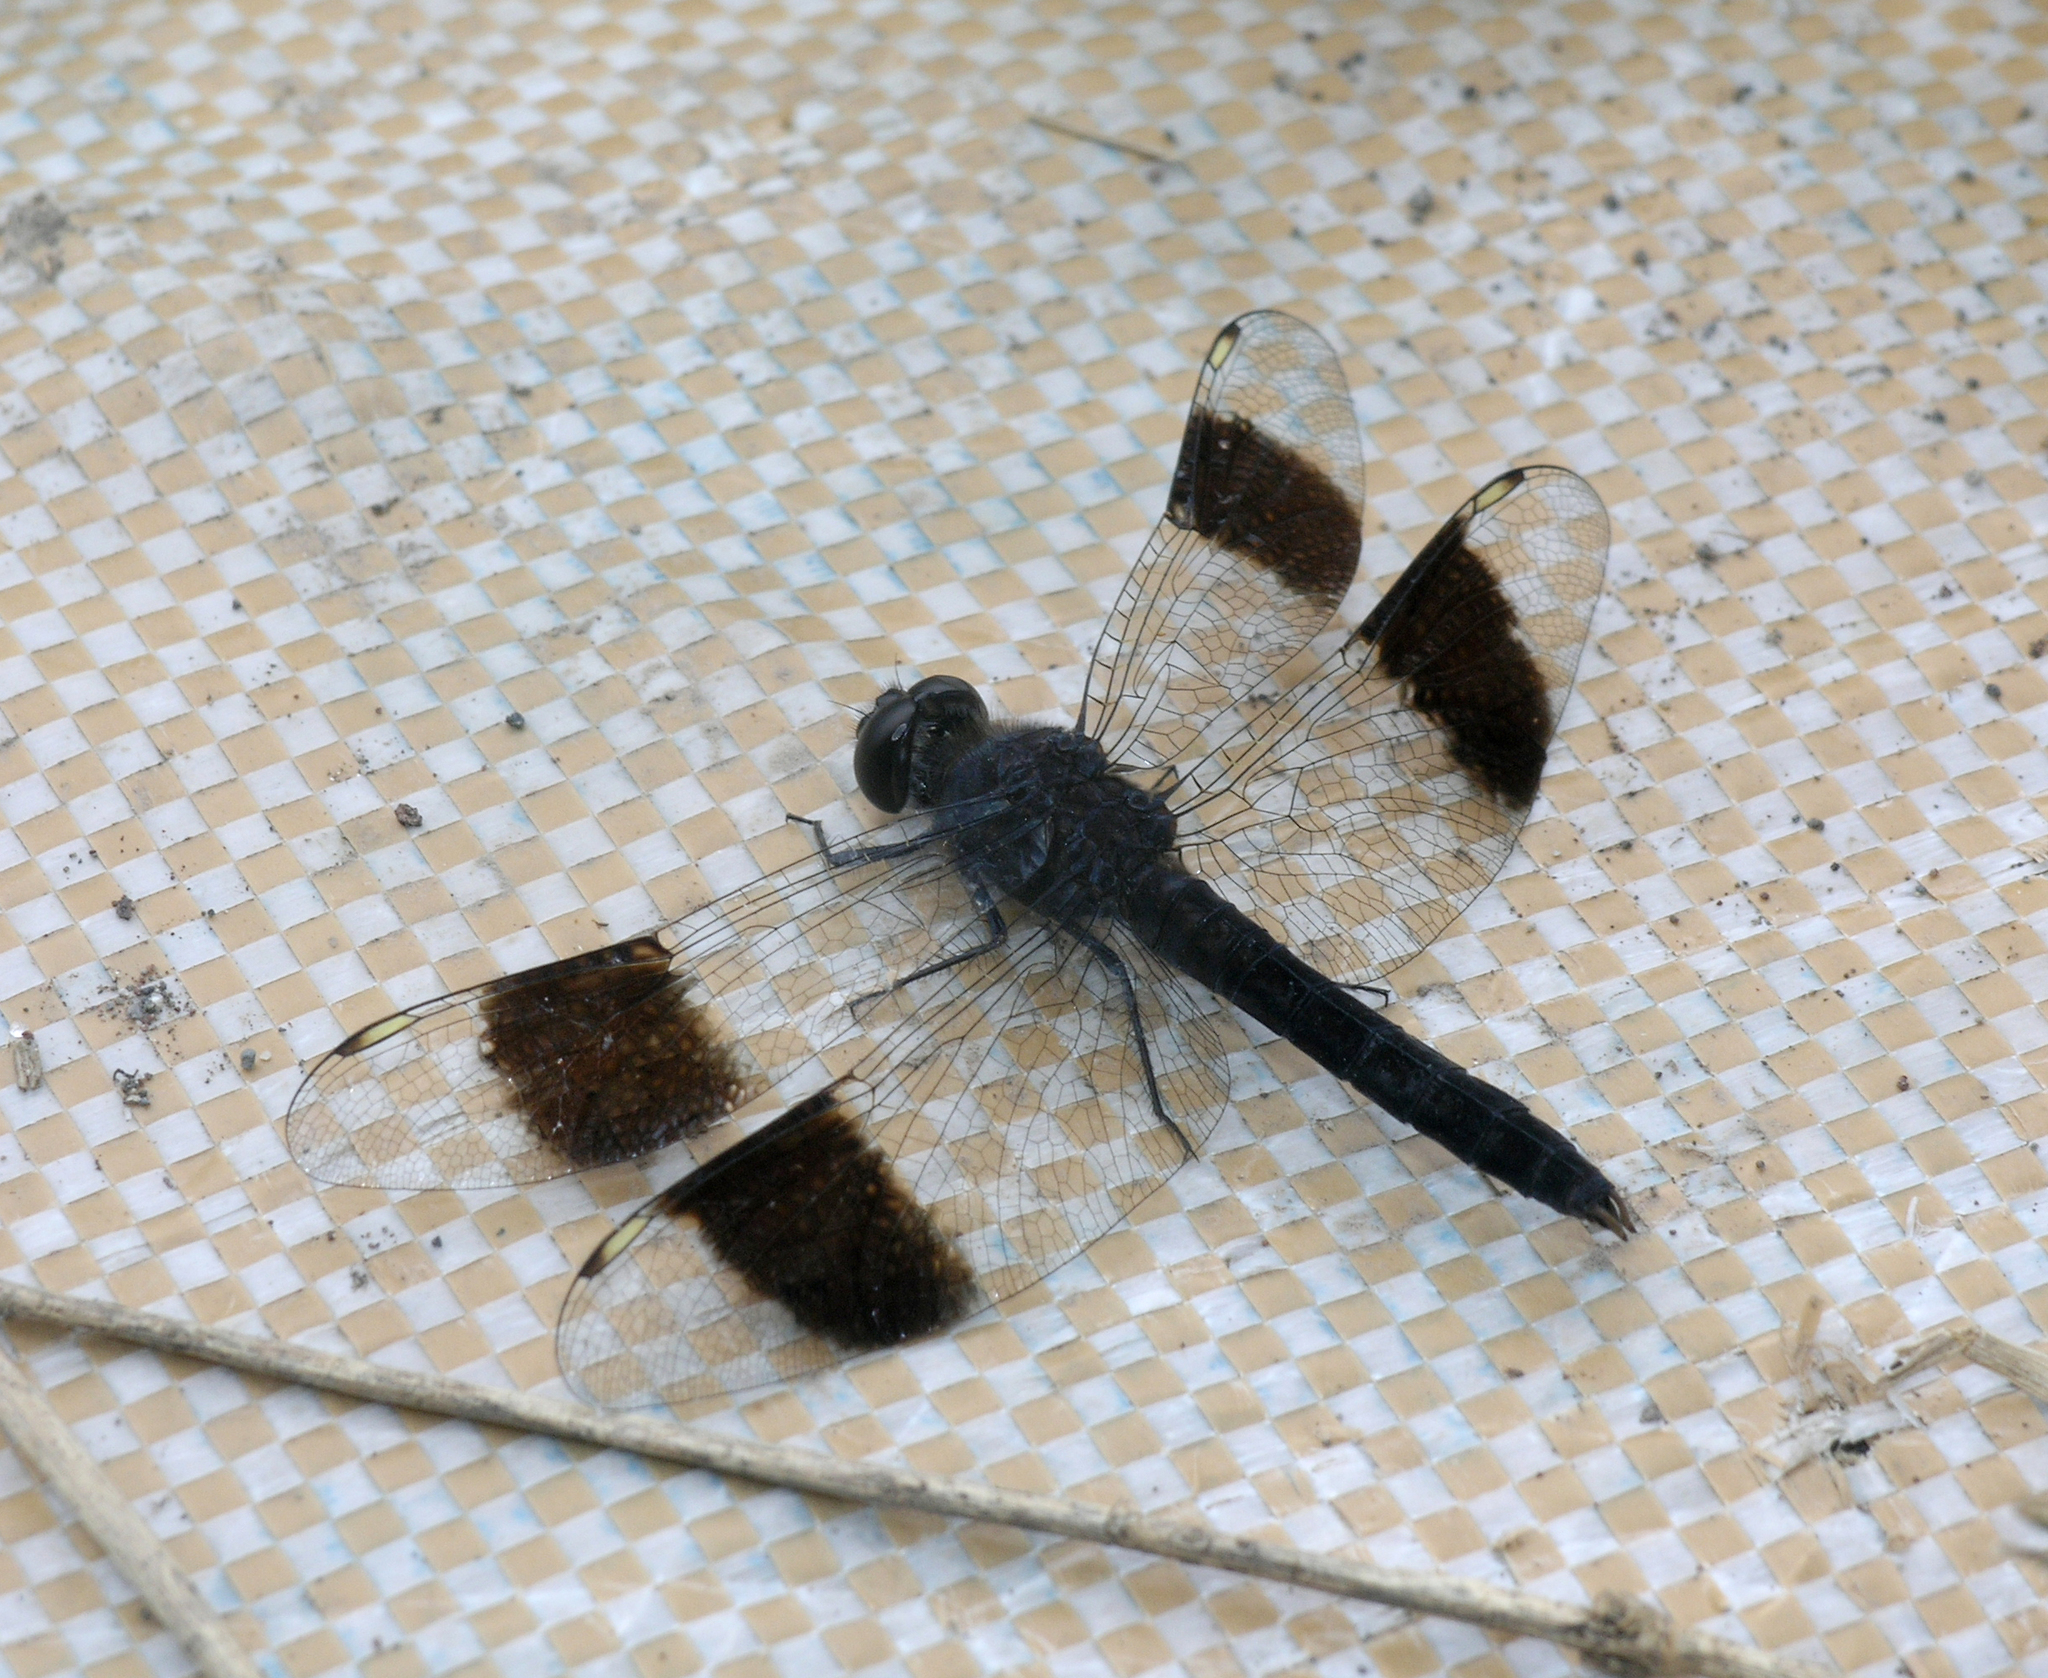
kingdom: Animalia
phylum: Arthropoda
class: Insecta
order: Odonata
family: Libellulidae
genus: Brachythemis
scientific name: Brachythemis leucosticta
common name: Banded groundling
